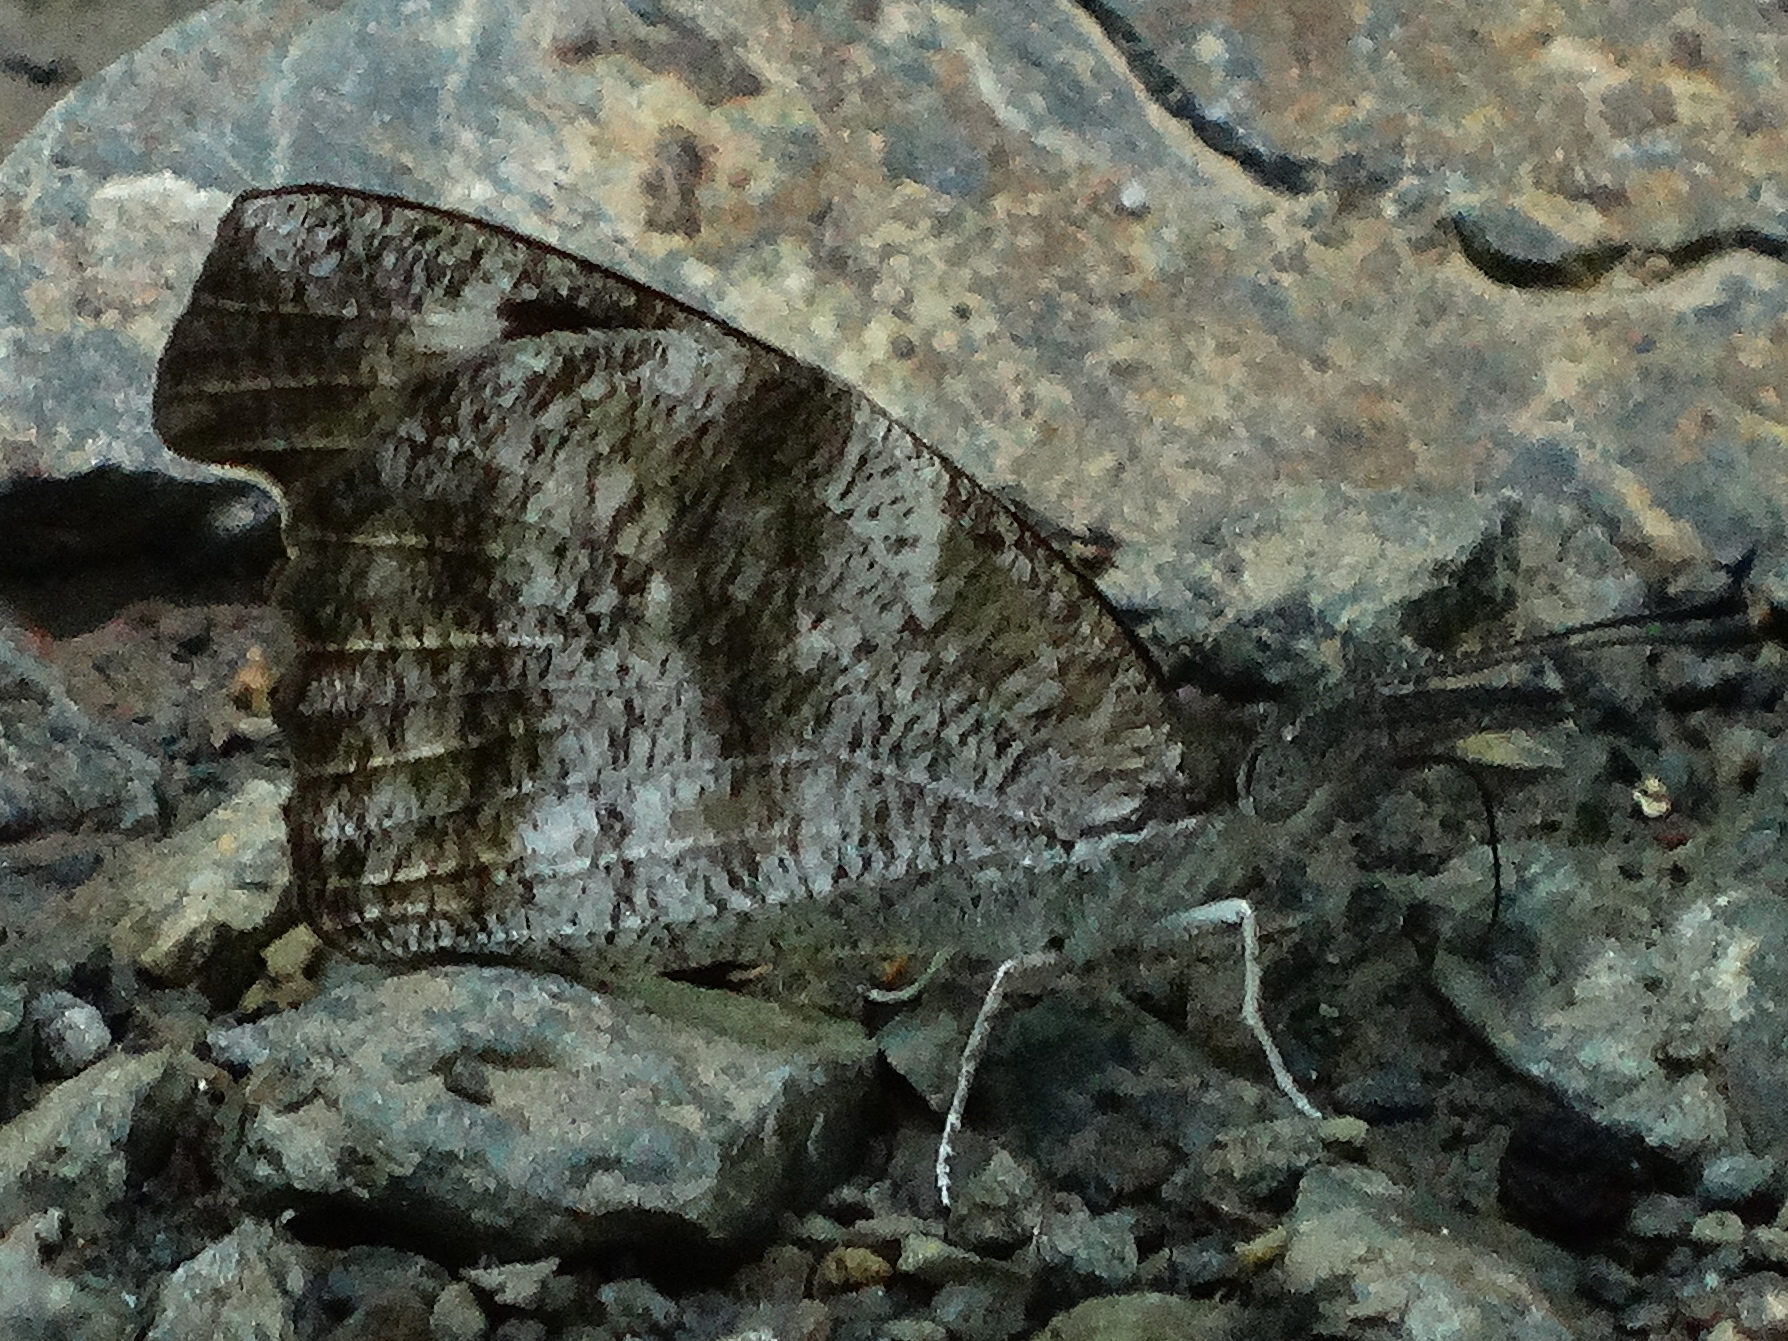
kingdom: Animalia
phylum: Arthropoda
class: Insecta
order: Lepidoptera
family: Nymphalidae
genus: Libytheana
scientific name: Libytheana carinenta
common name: American snout
